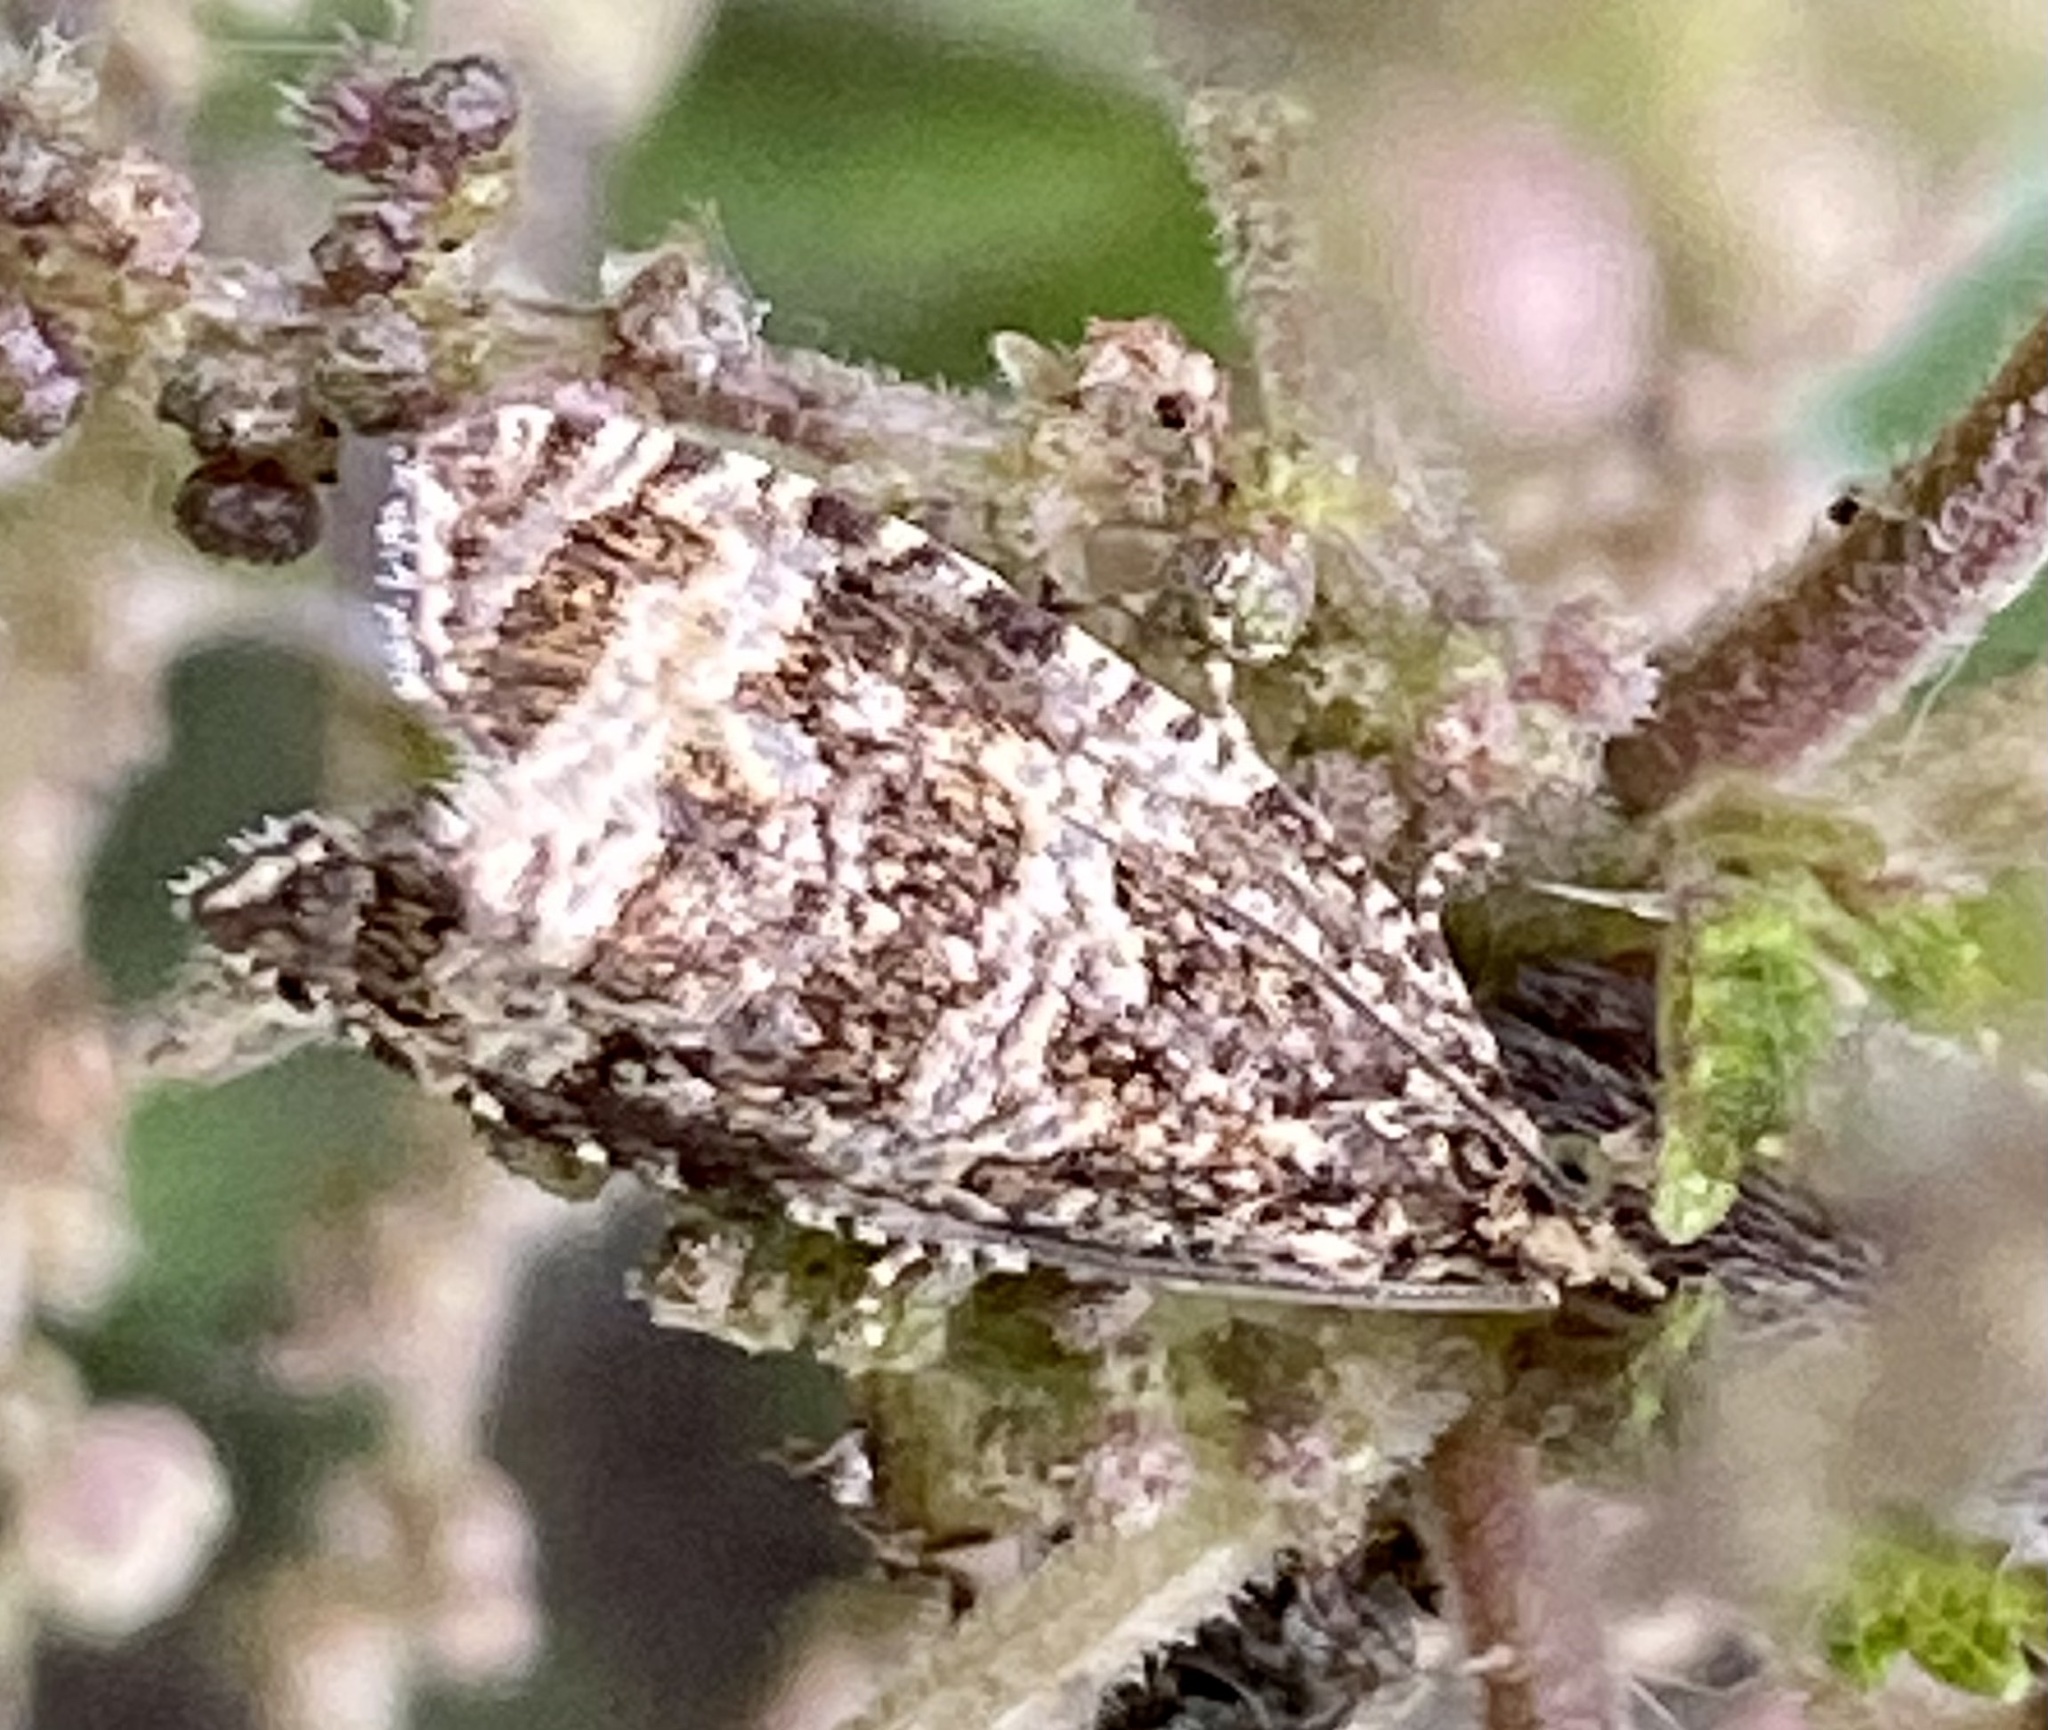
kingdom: Animalia
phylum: Arthropoda
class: Insecta
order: Lepidoptera
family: Tortricidae
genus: Syricoris
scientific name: Syricoris lacunana
